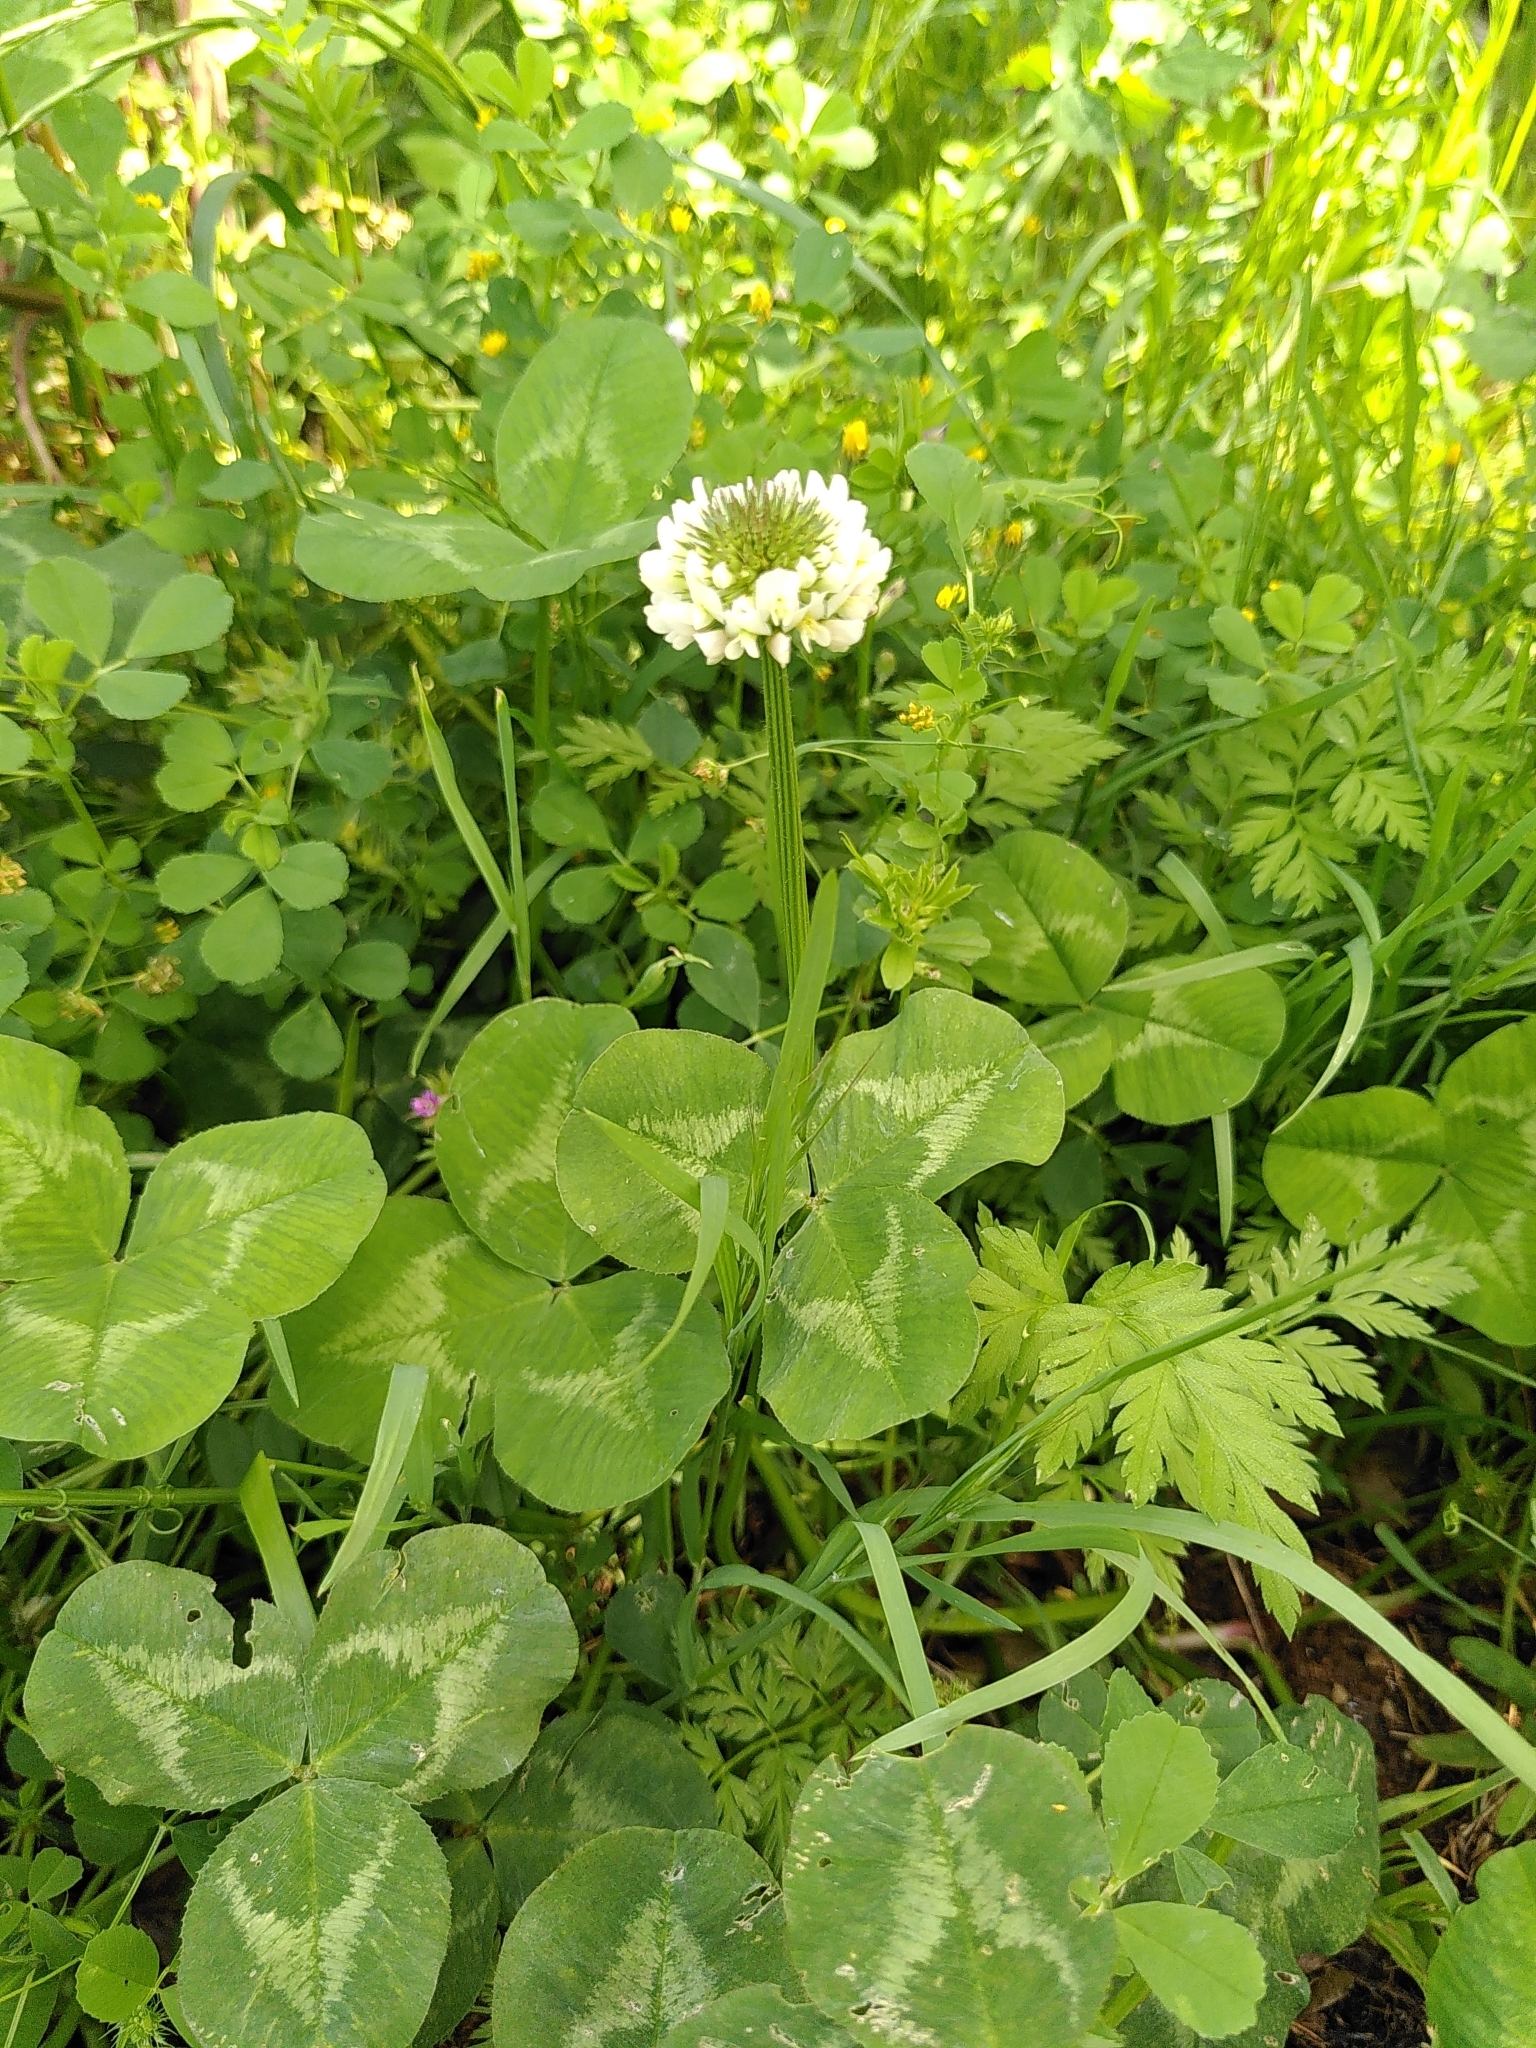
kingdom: Plantae
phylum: Tracheophyta
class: Magnoliopsida
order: Fabales
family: Fabaceae
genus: Trifolium
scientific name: Trifolium repens
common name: White clover
